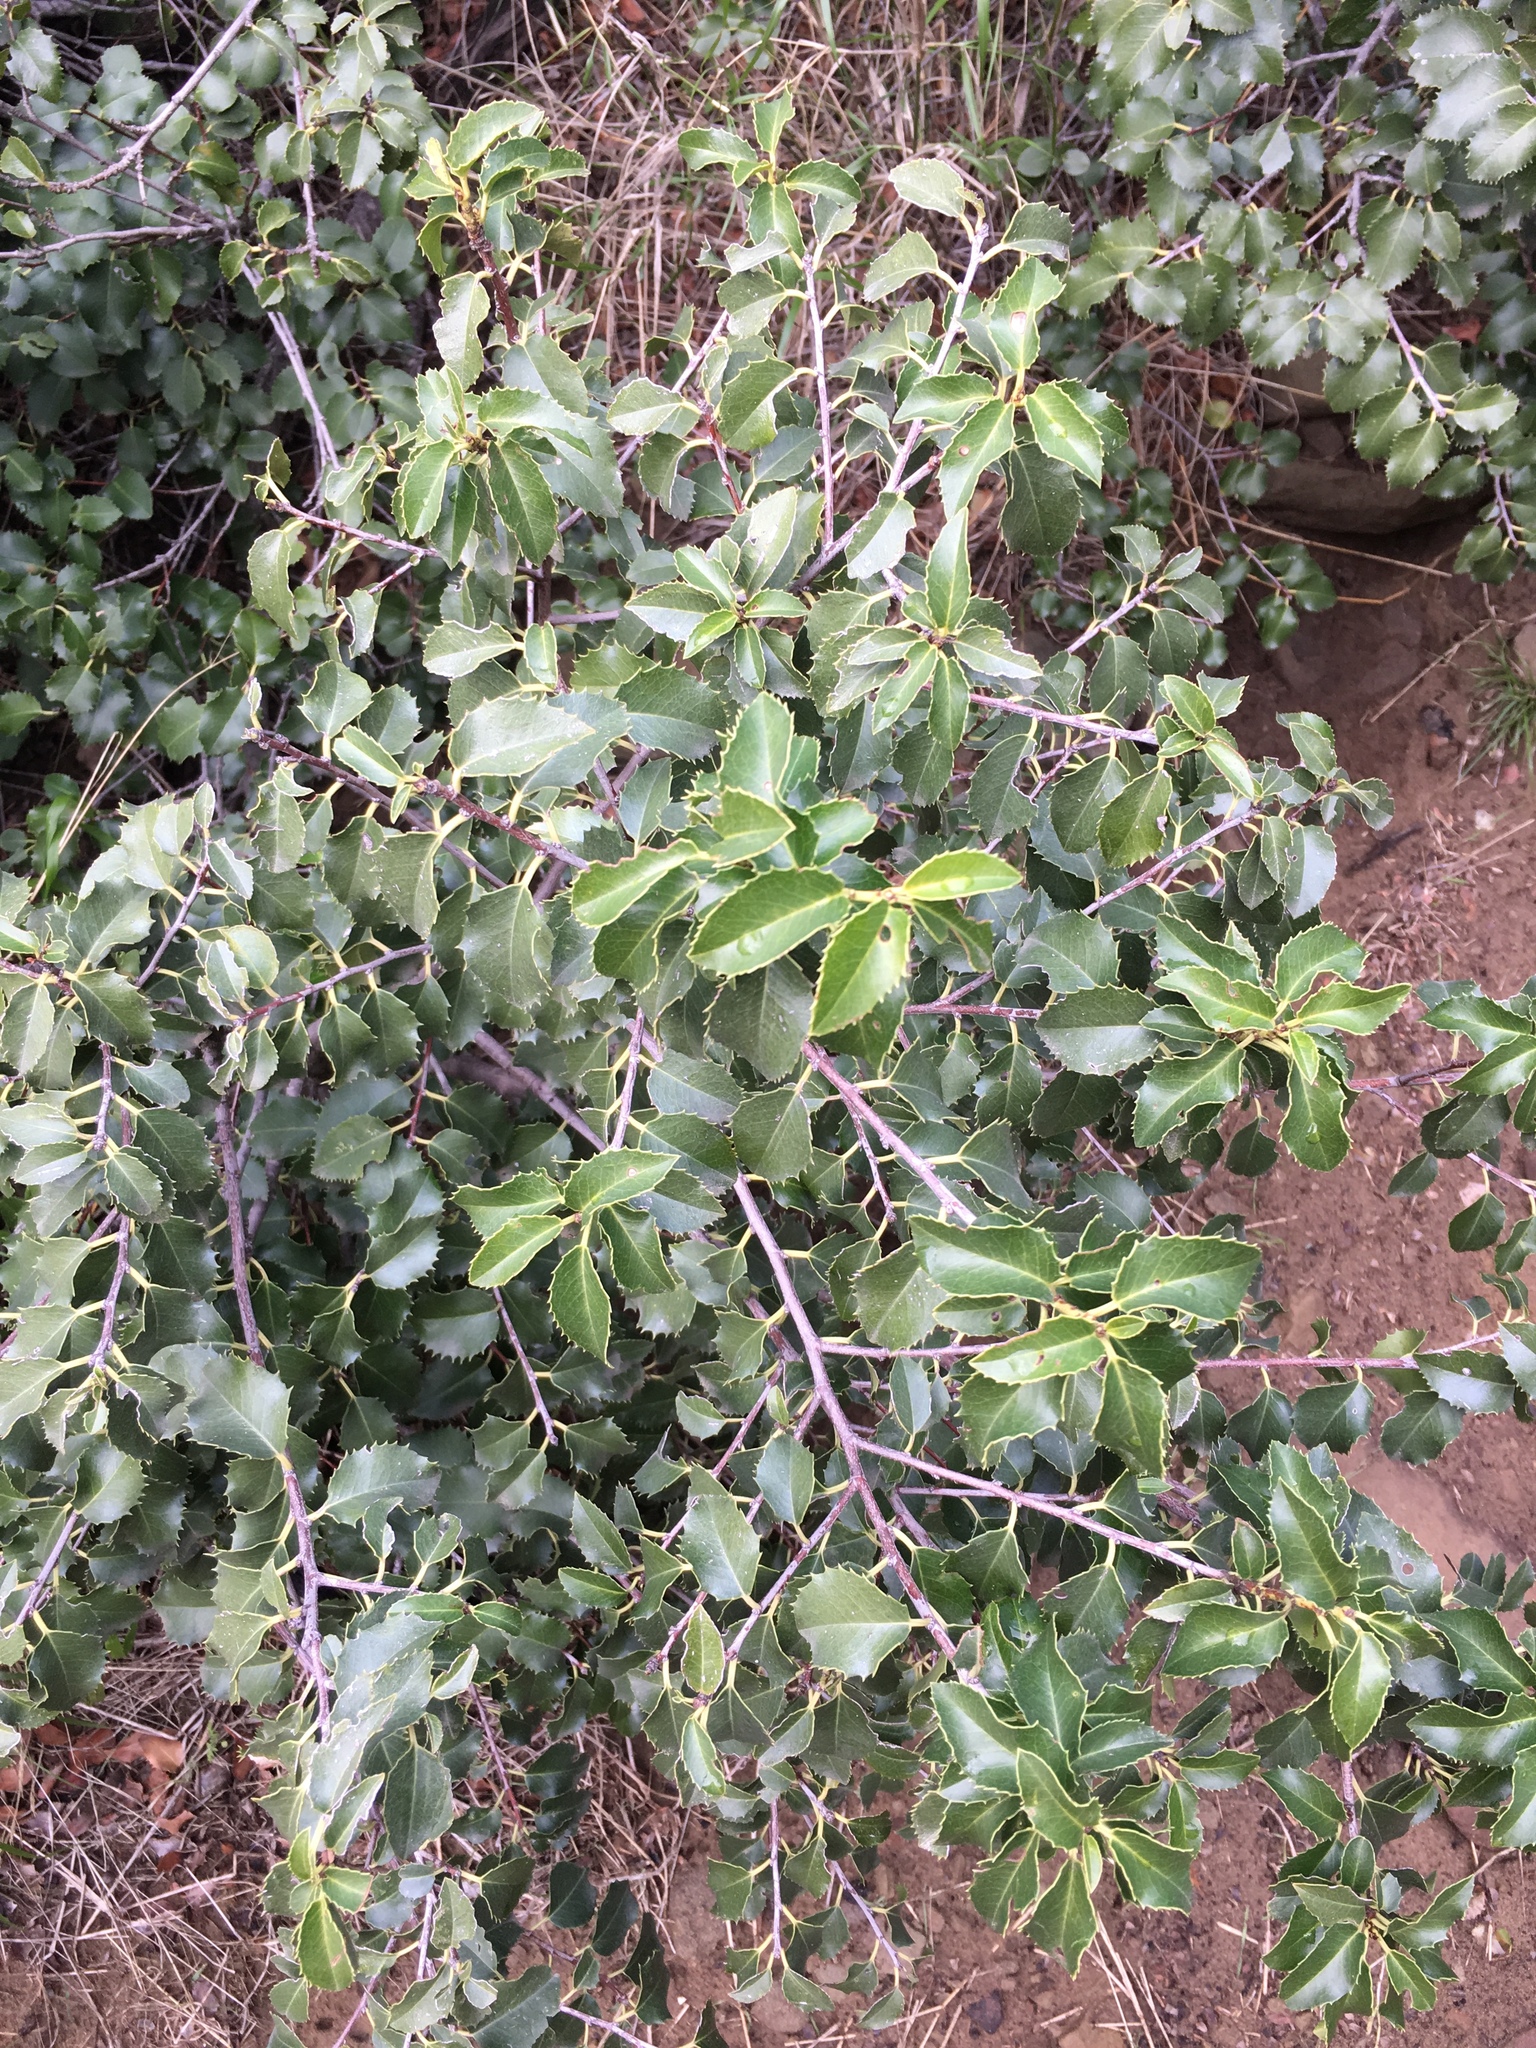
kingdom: Plantae
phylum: Tracheophyta
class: Magnoliopsida
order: Rosales
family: Rosaceae
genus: Prunus
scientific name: Prunus ilicifolia
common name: Hollyleaf cherry
